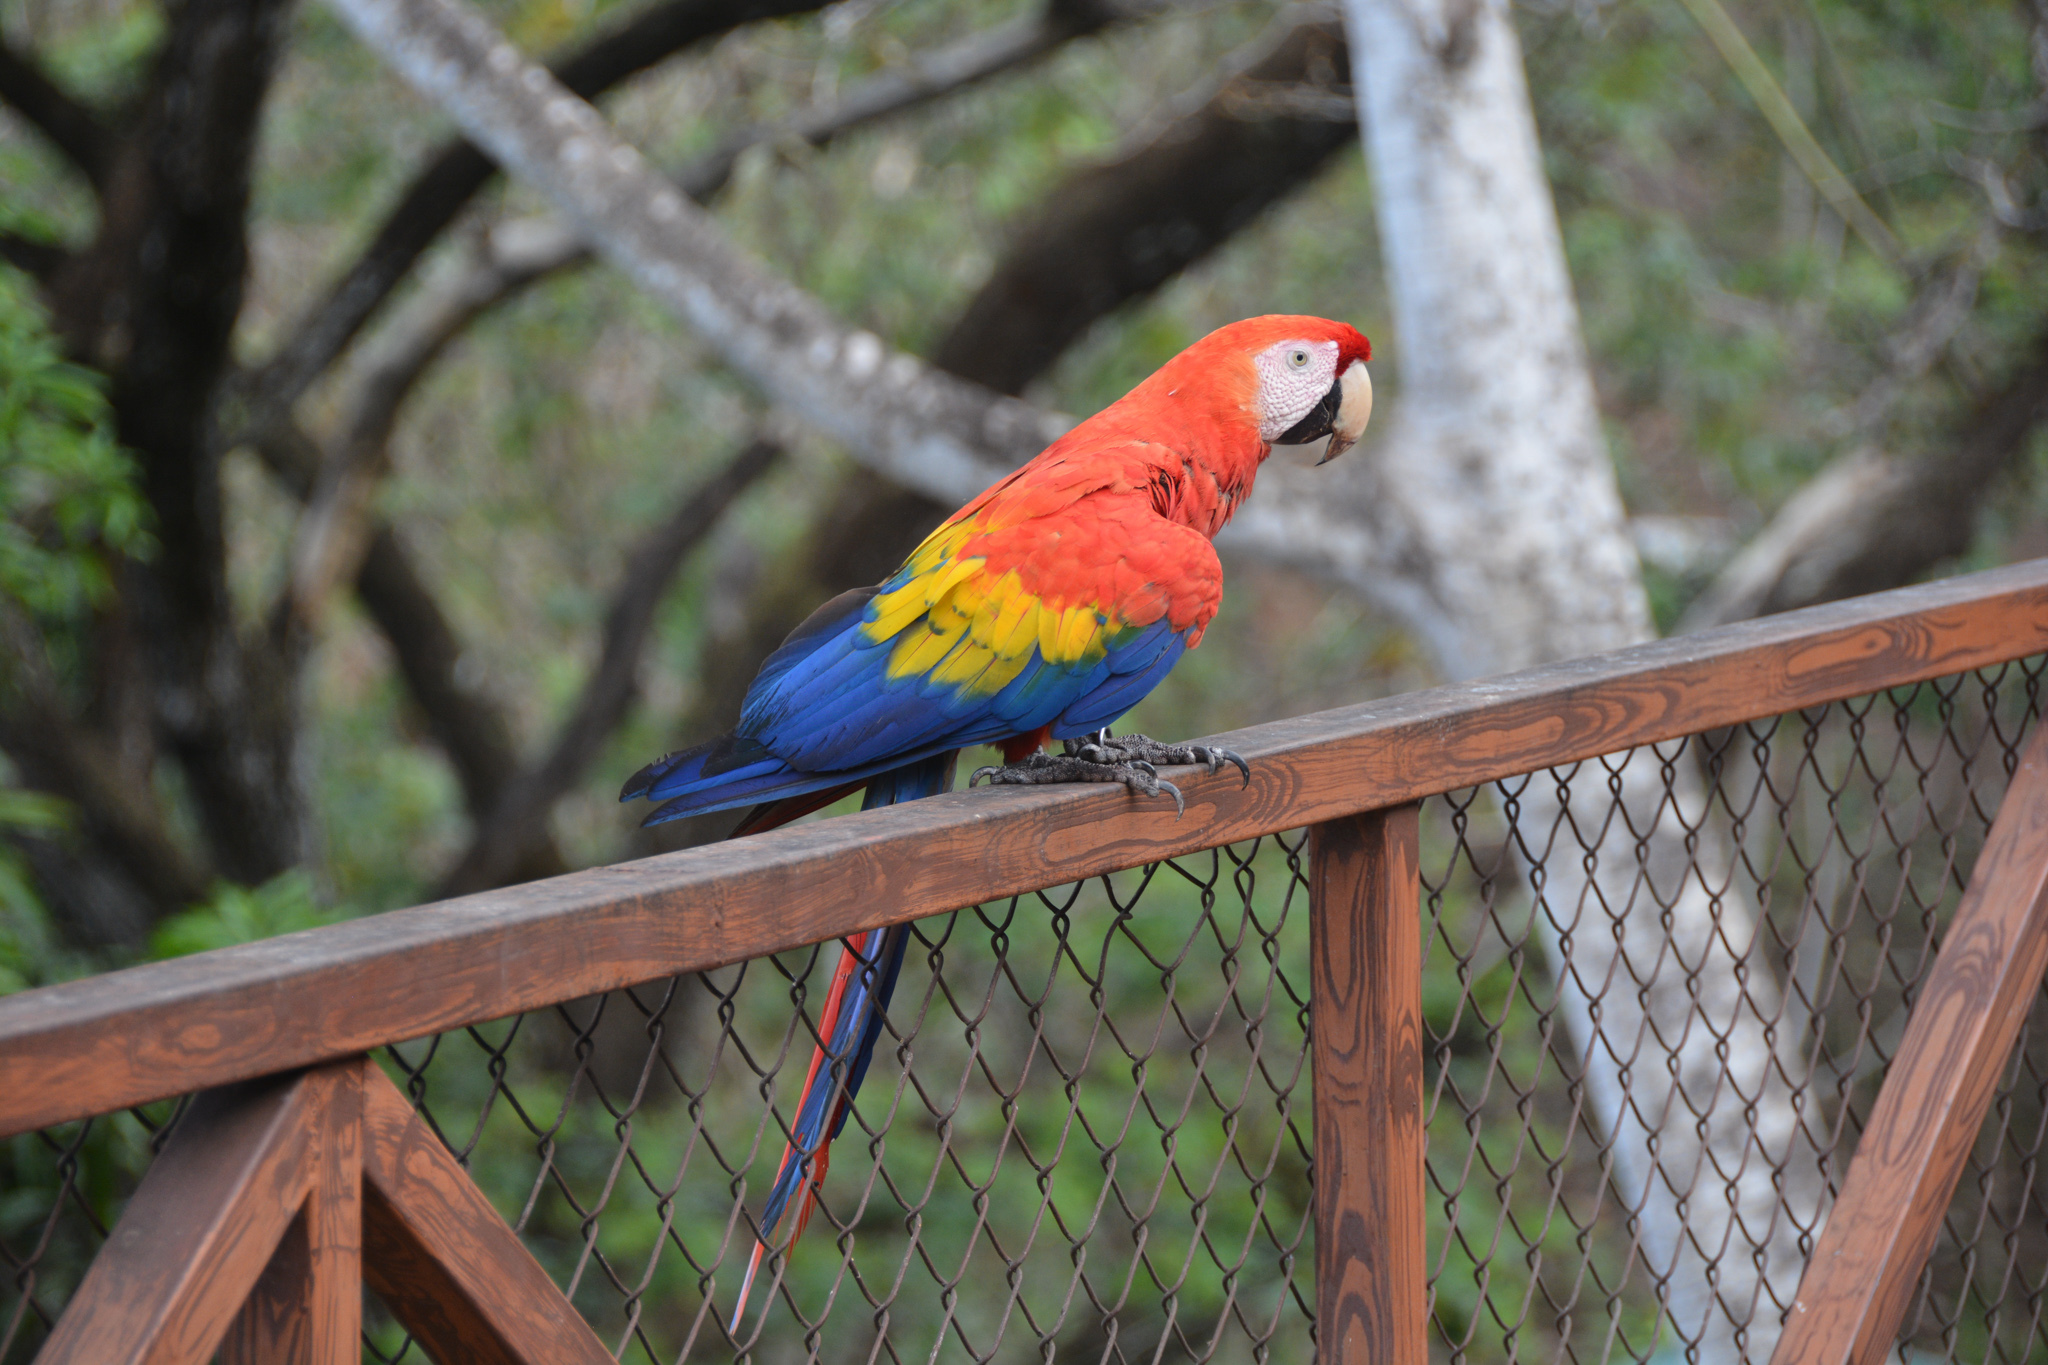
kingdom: Animalia
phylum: Chordata
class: Aves
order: Psittaciformes
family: Psittacidae
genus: Ara
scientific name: Ara macao
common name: Scarlet macaw
